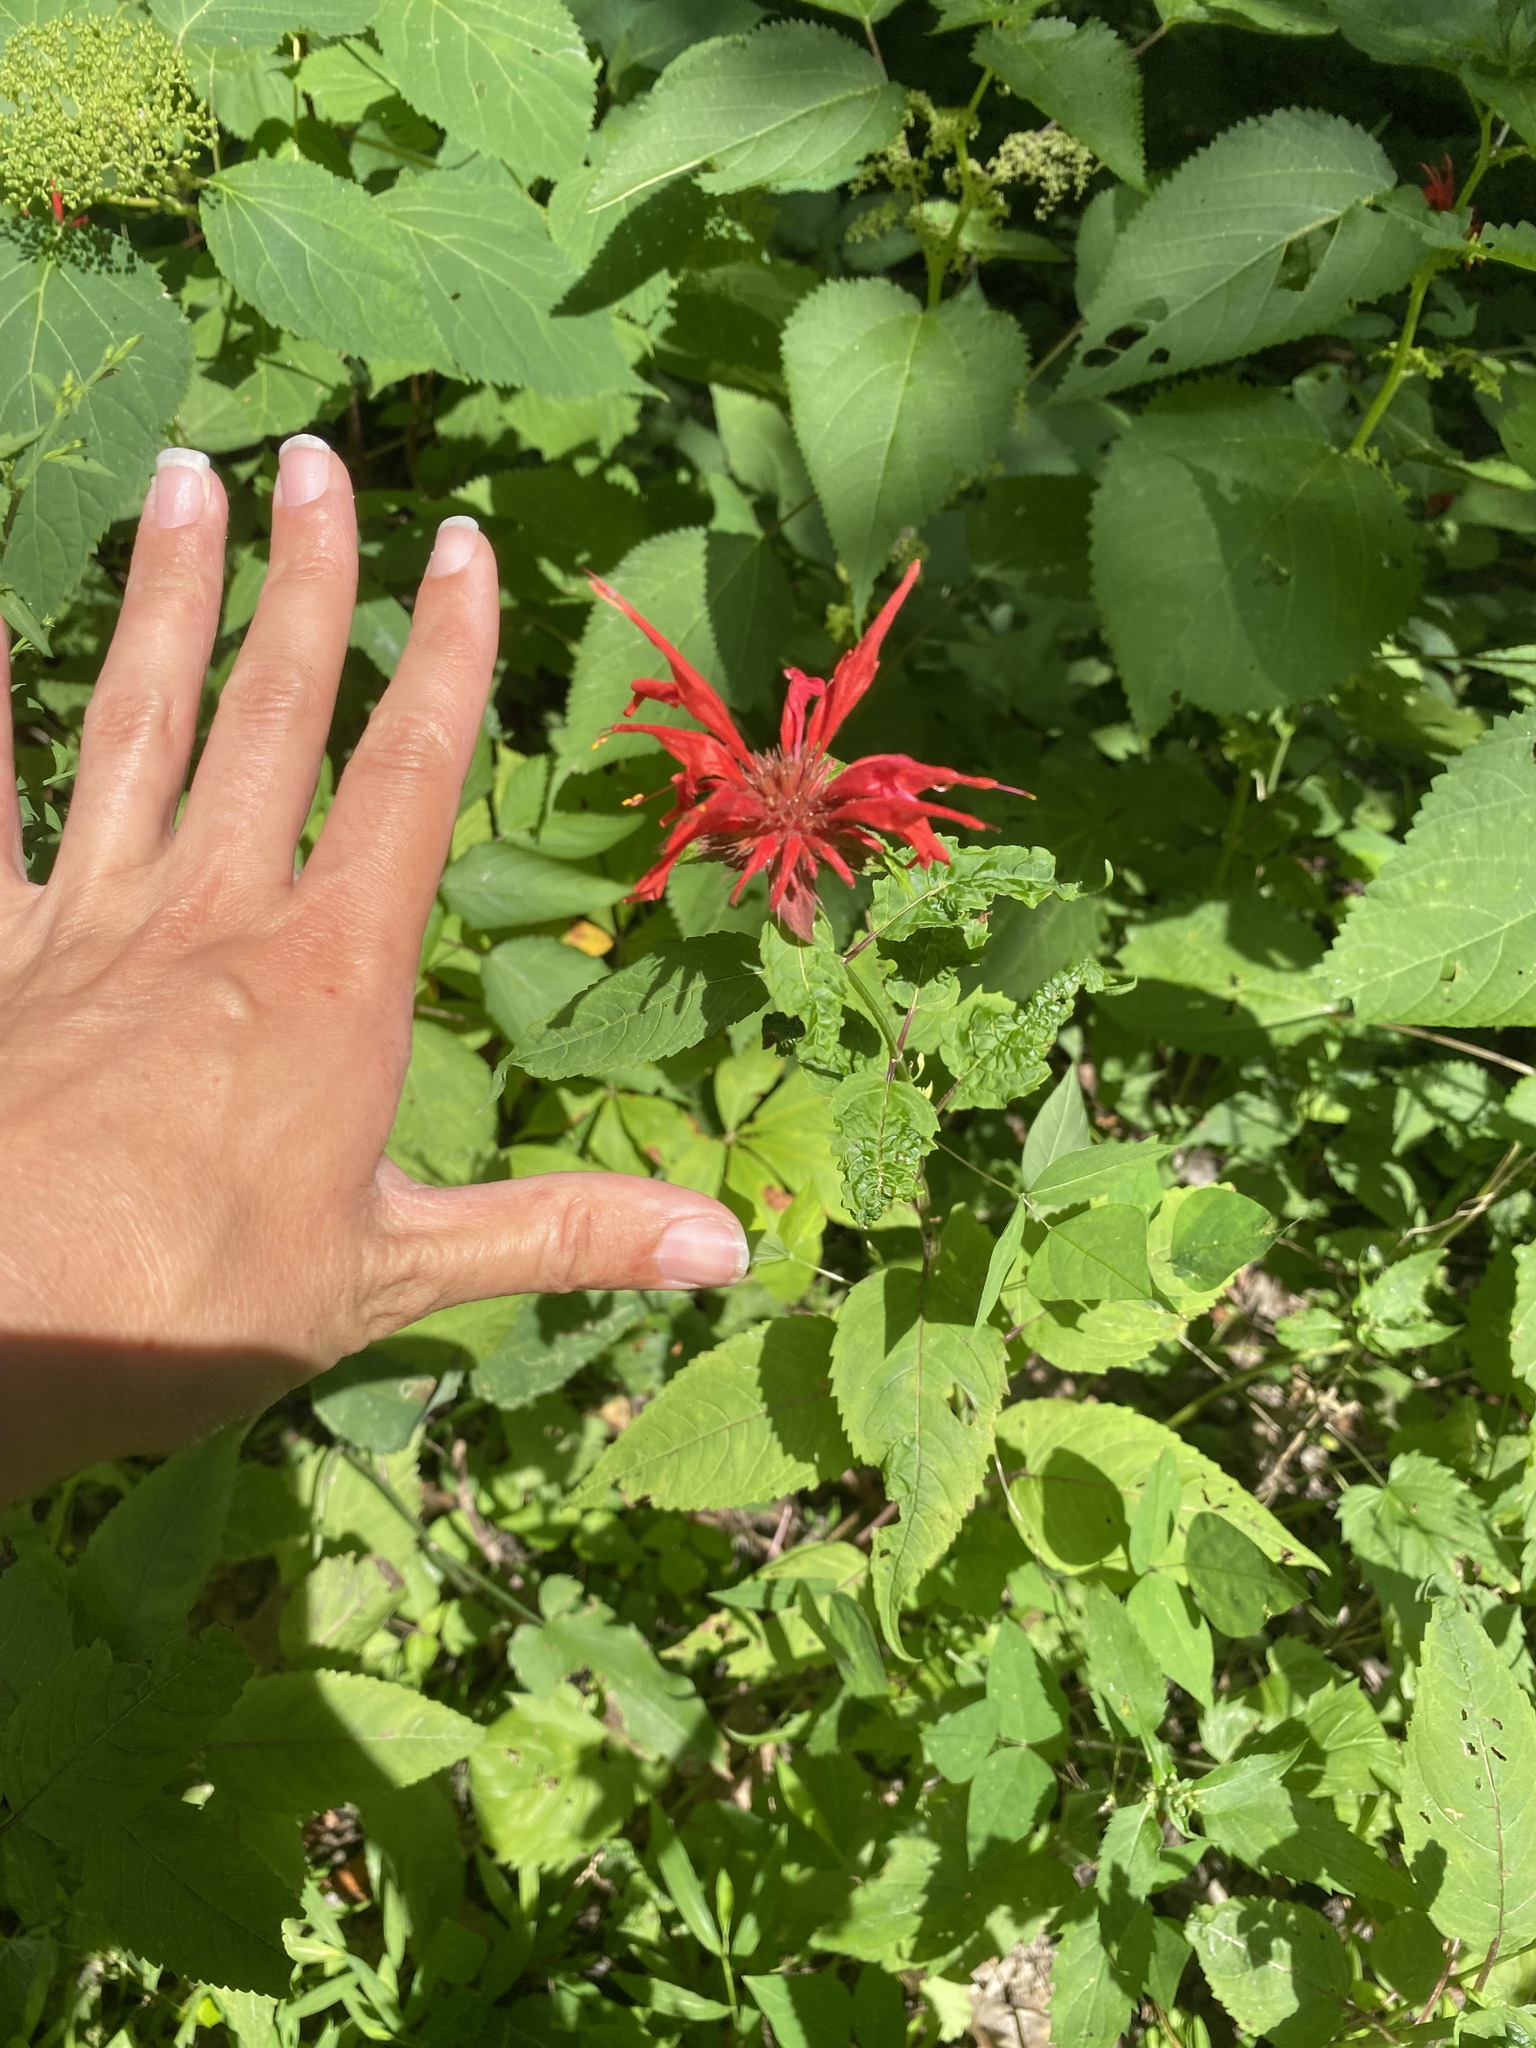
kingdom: Plantae
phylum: Tracheophyta
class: Magnoliopsida
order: Lamiales
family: Lamiaceae
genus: Monarda
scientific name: Monarda didyma
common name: Beebalm
